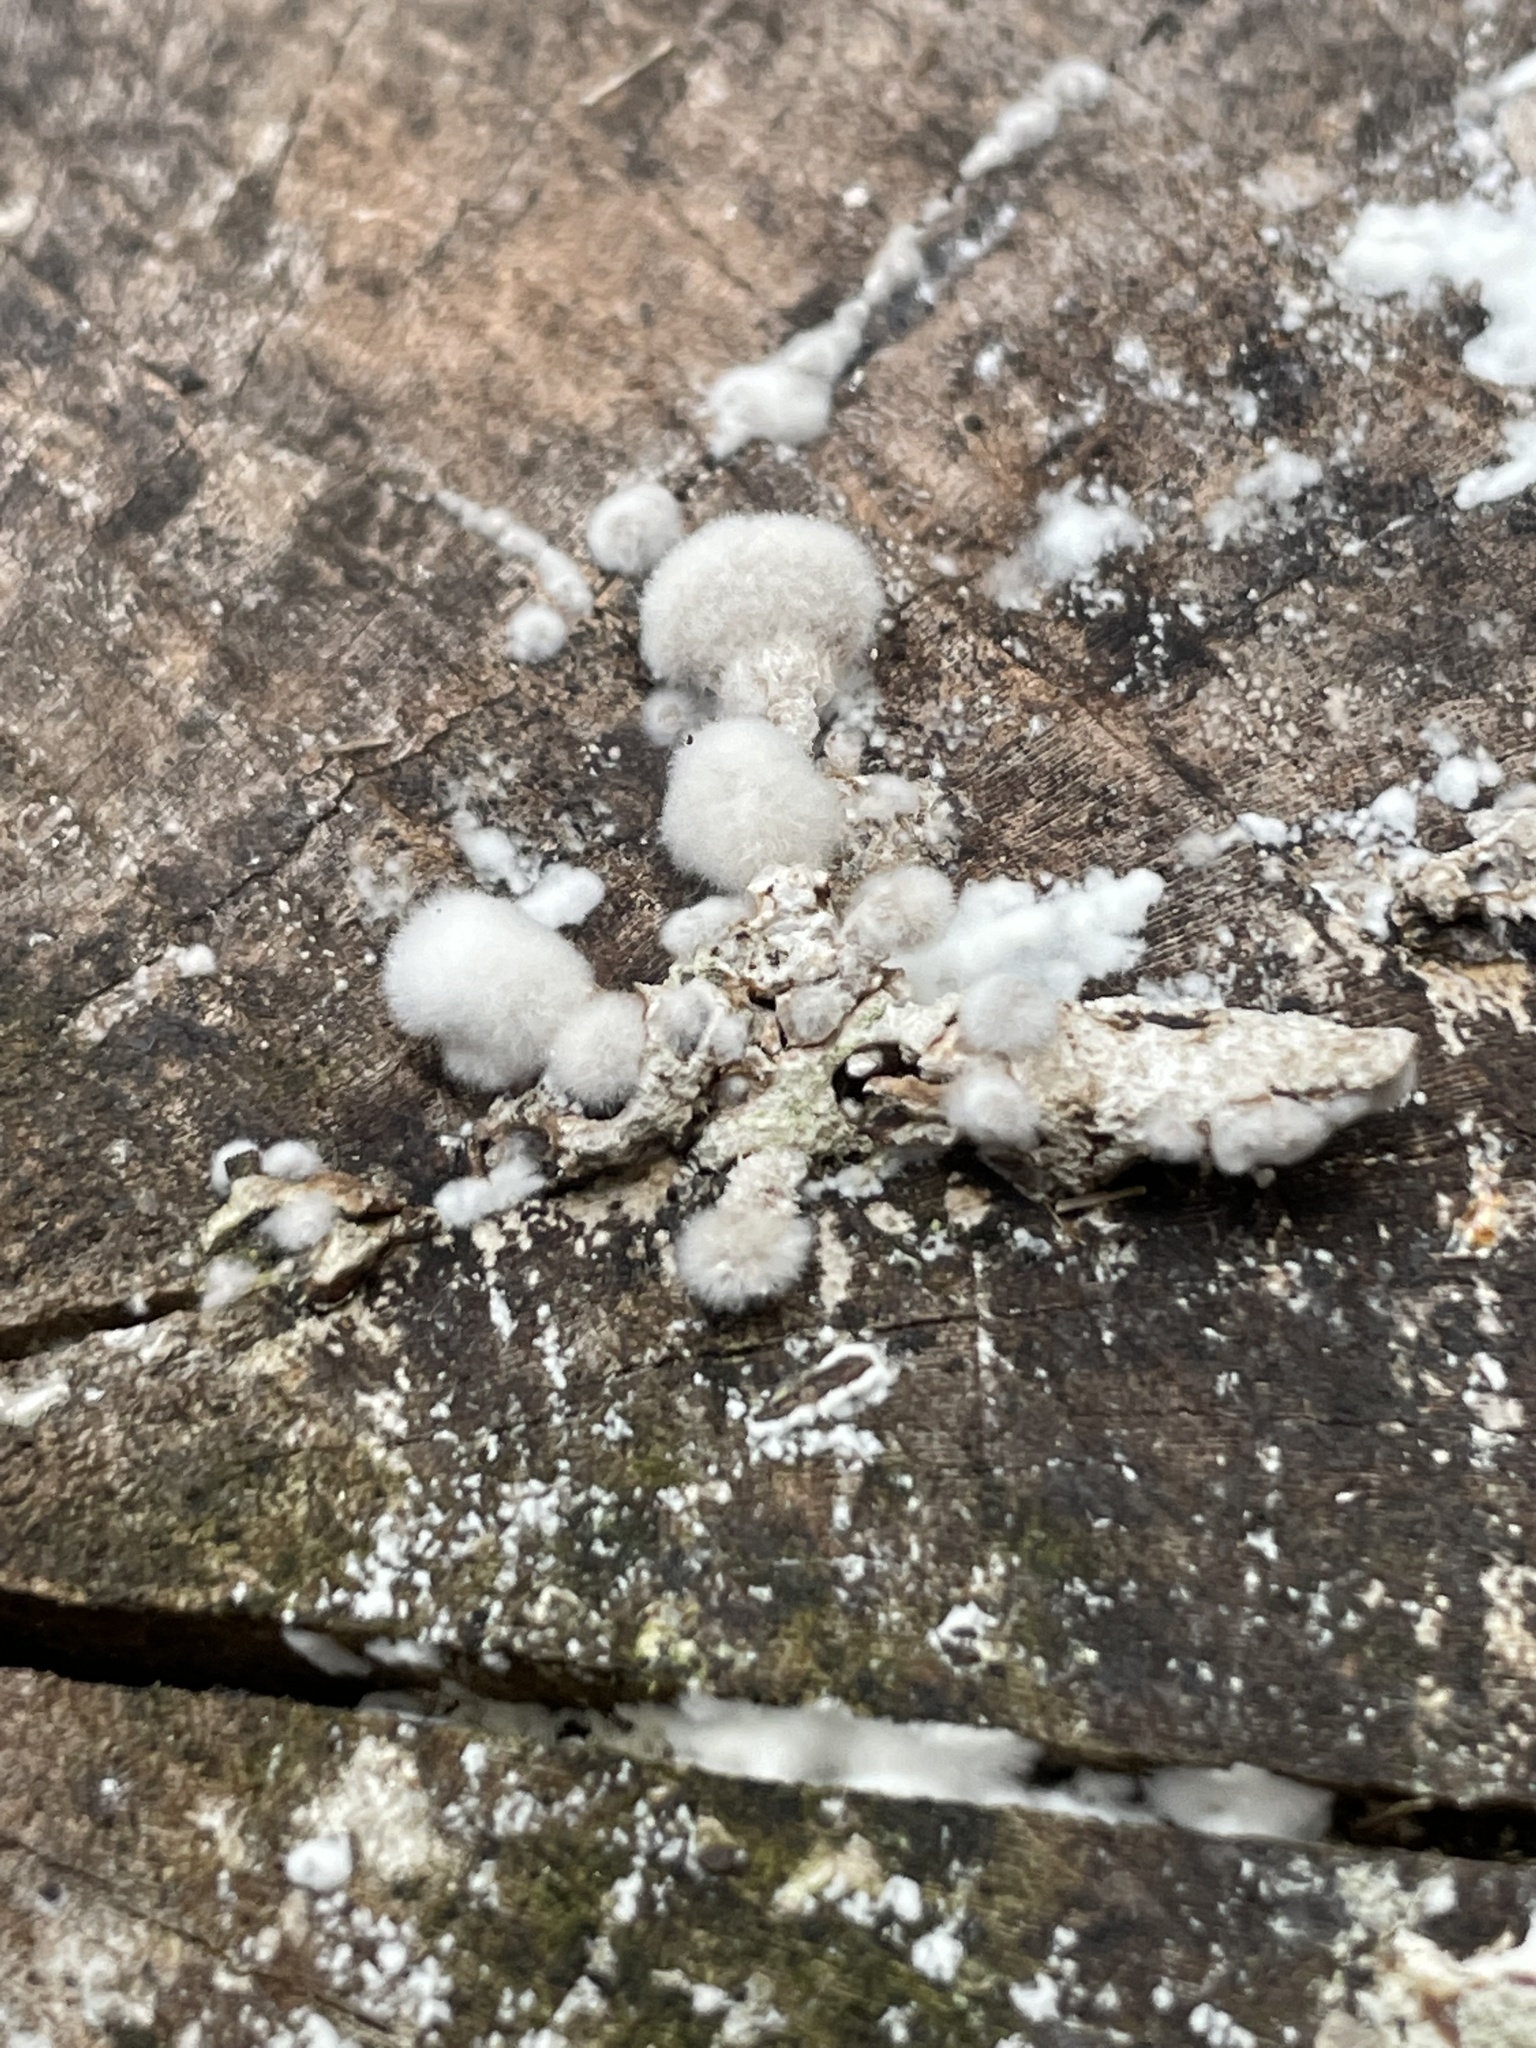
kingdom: Fungi
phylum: Basidiomycota
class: Agaricomycetes
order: Agaricales
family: Schizophyllaceae
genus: Schizophyllum
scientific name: Schizophyllum commune
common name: Common porecrust
